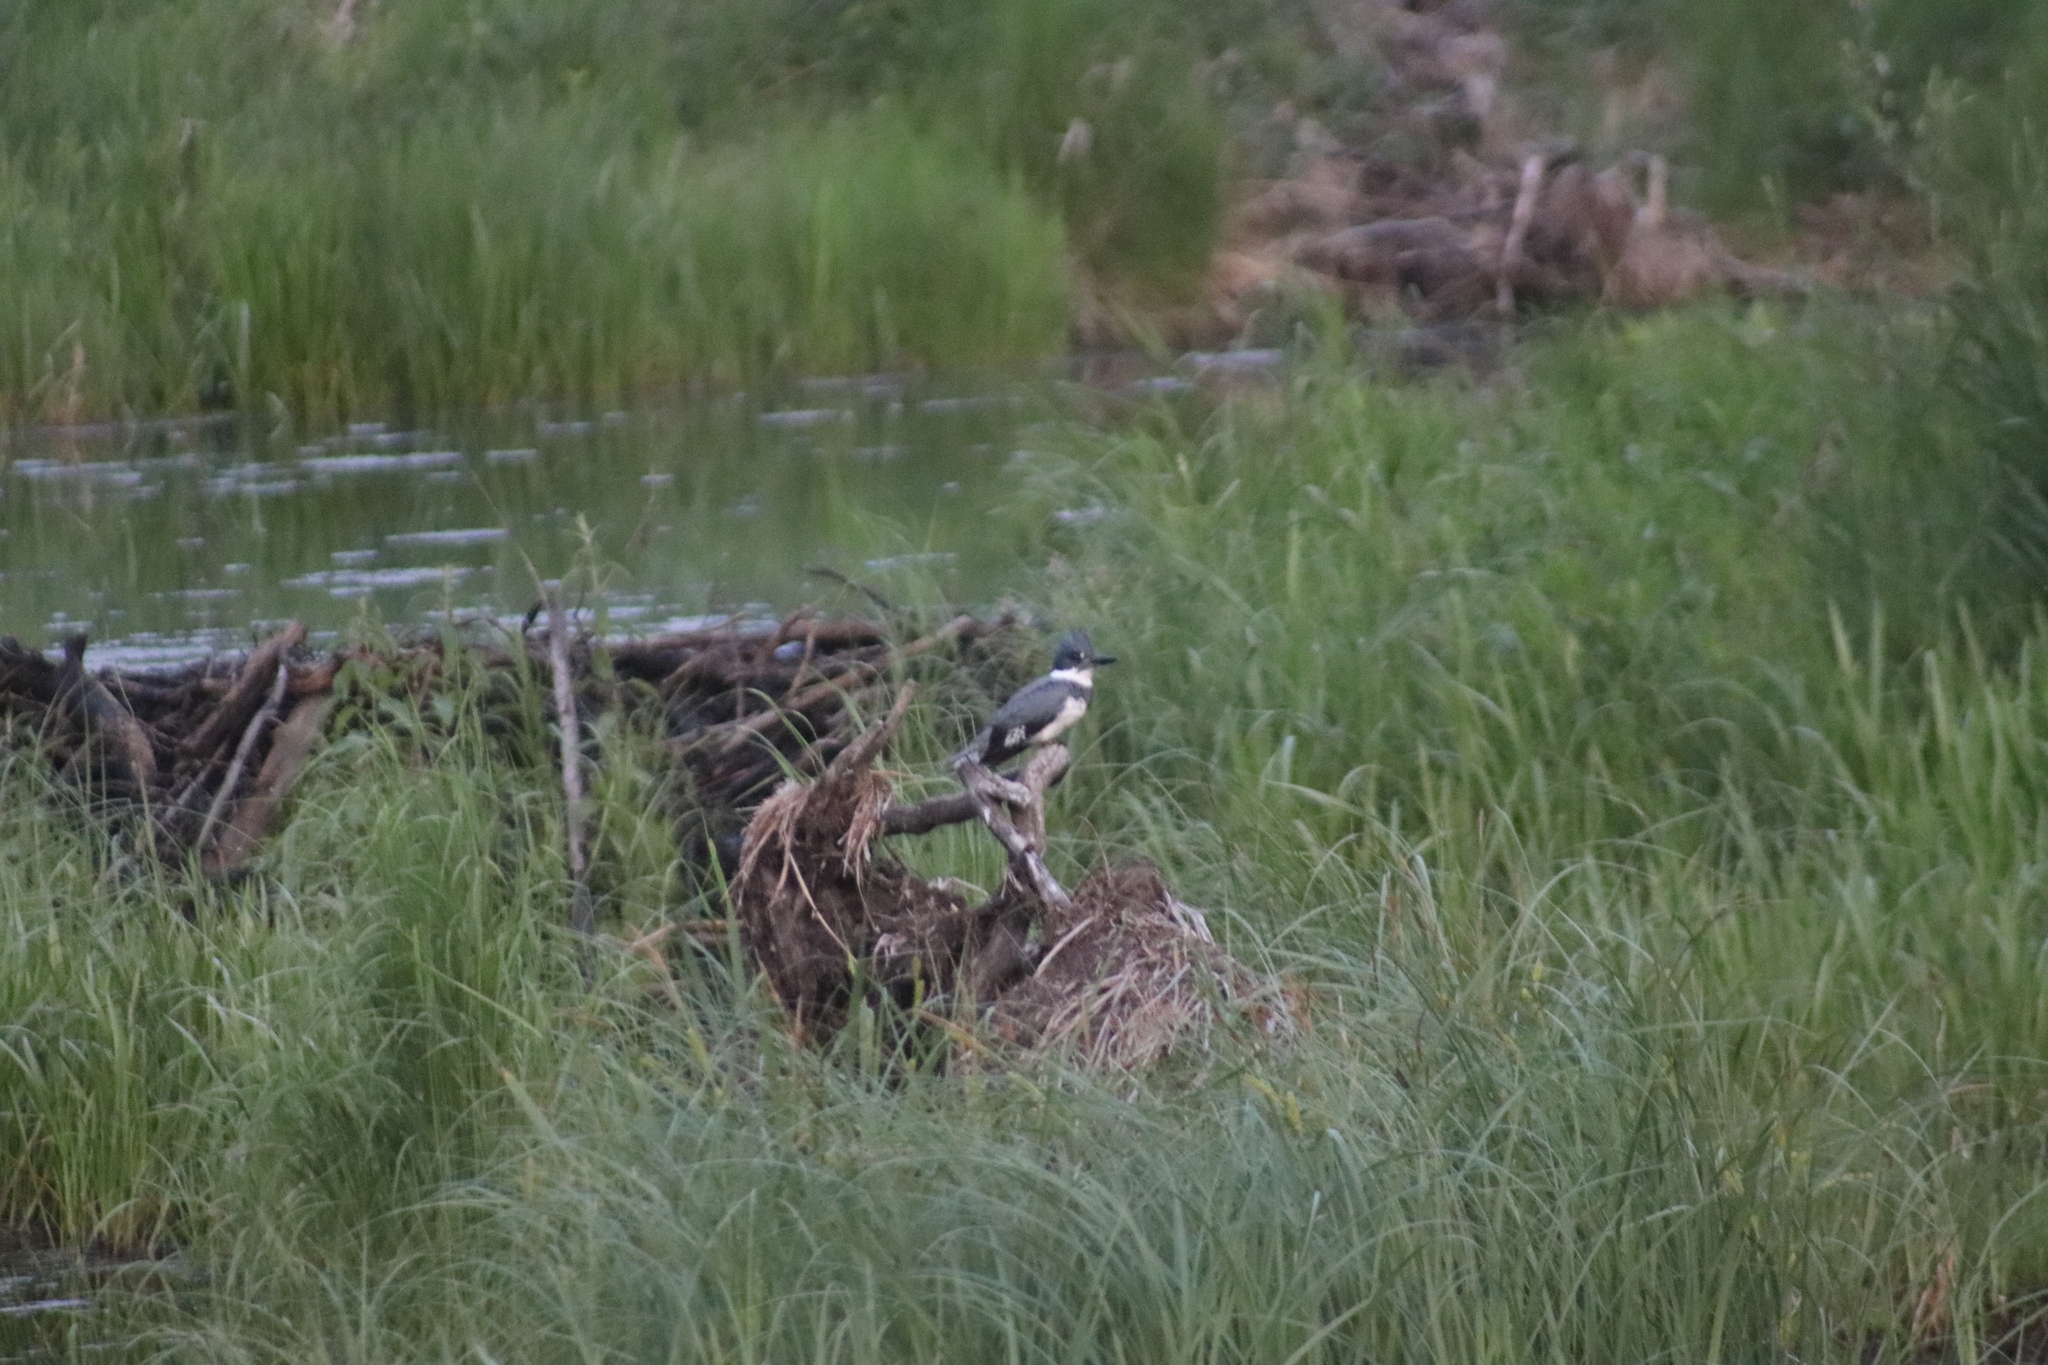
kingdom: Animalia
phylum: Chordata
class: Aves
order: Coraciiformes
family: Alcedinidae
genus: Megaceryle
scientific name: Megaceryle alcyon
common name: Belted kingfisher
